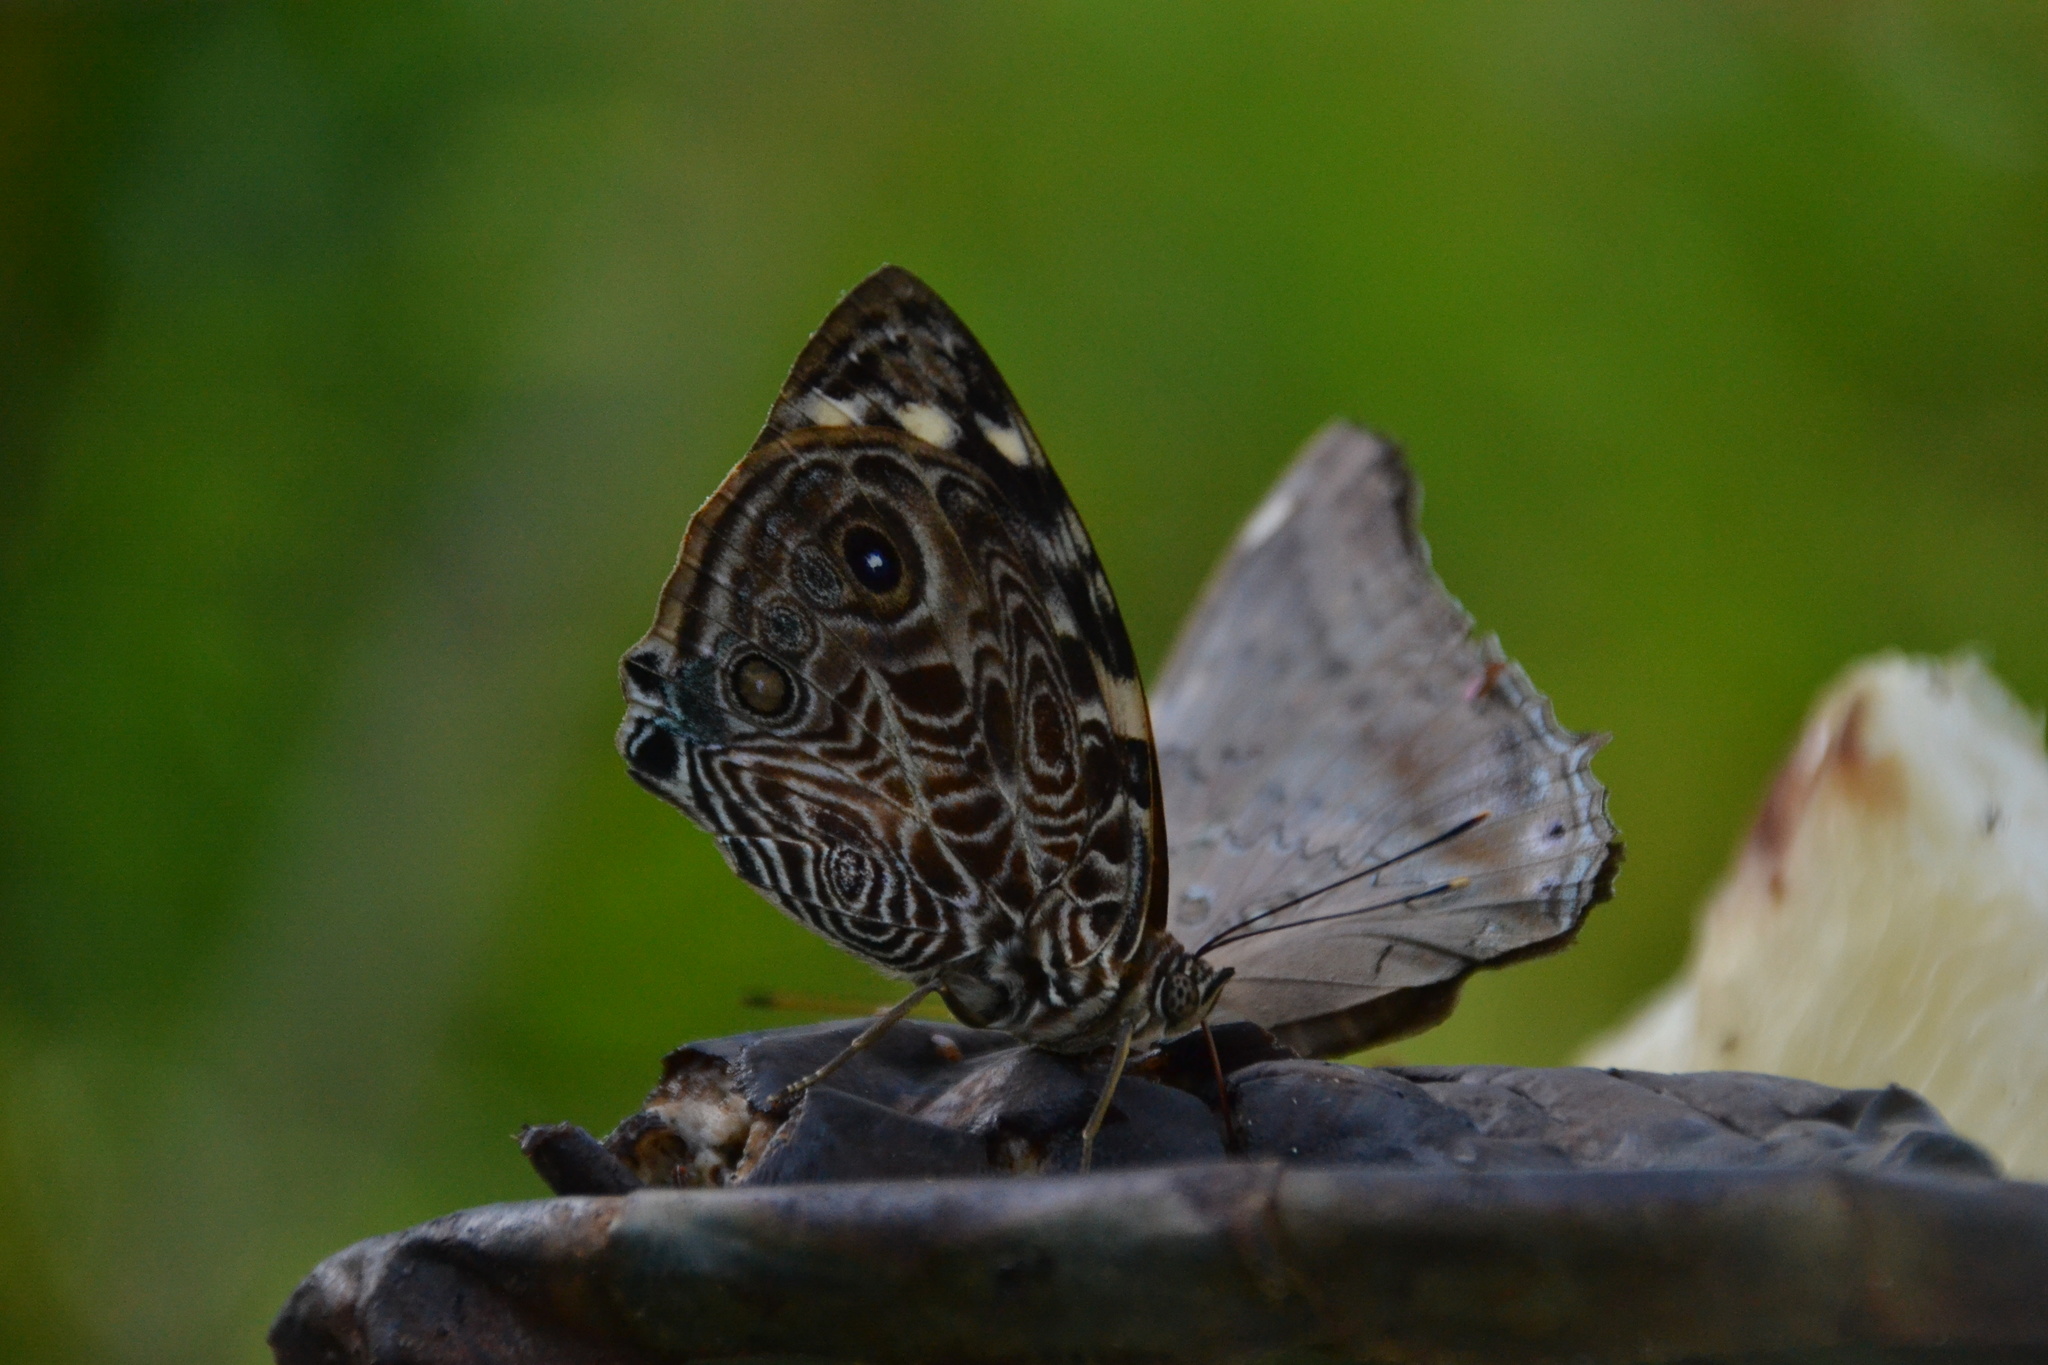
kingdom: Animalia
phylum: Arthropoda
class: Insecta
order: Lepidoptera
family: Nymphalidae
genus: Smyrna
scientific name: Smyrna blomfildia
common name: Blomfild's beauty
